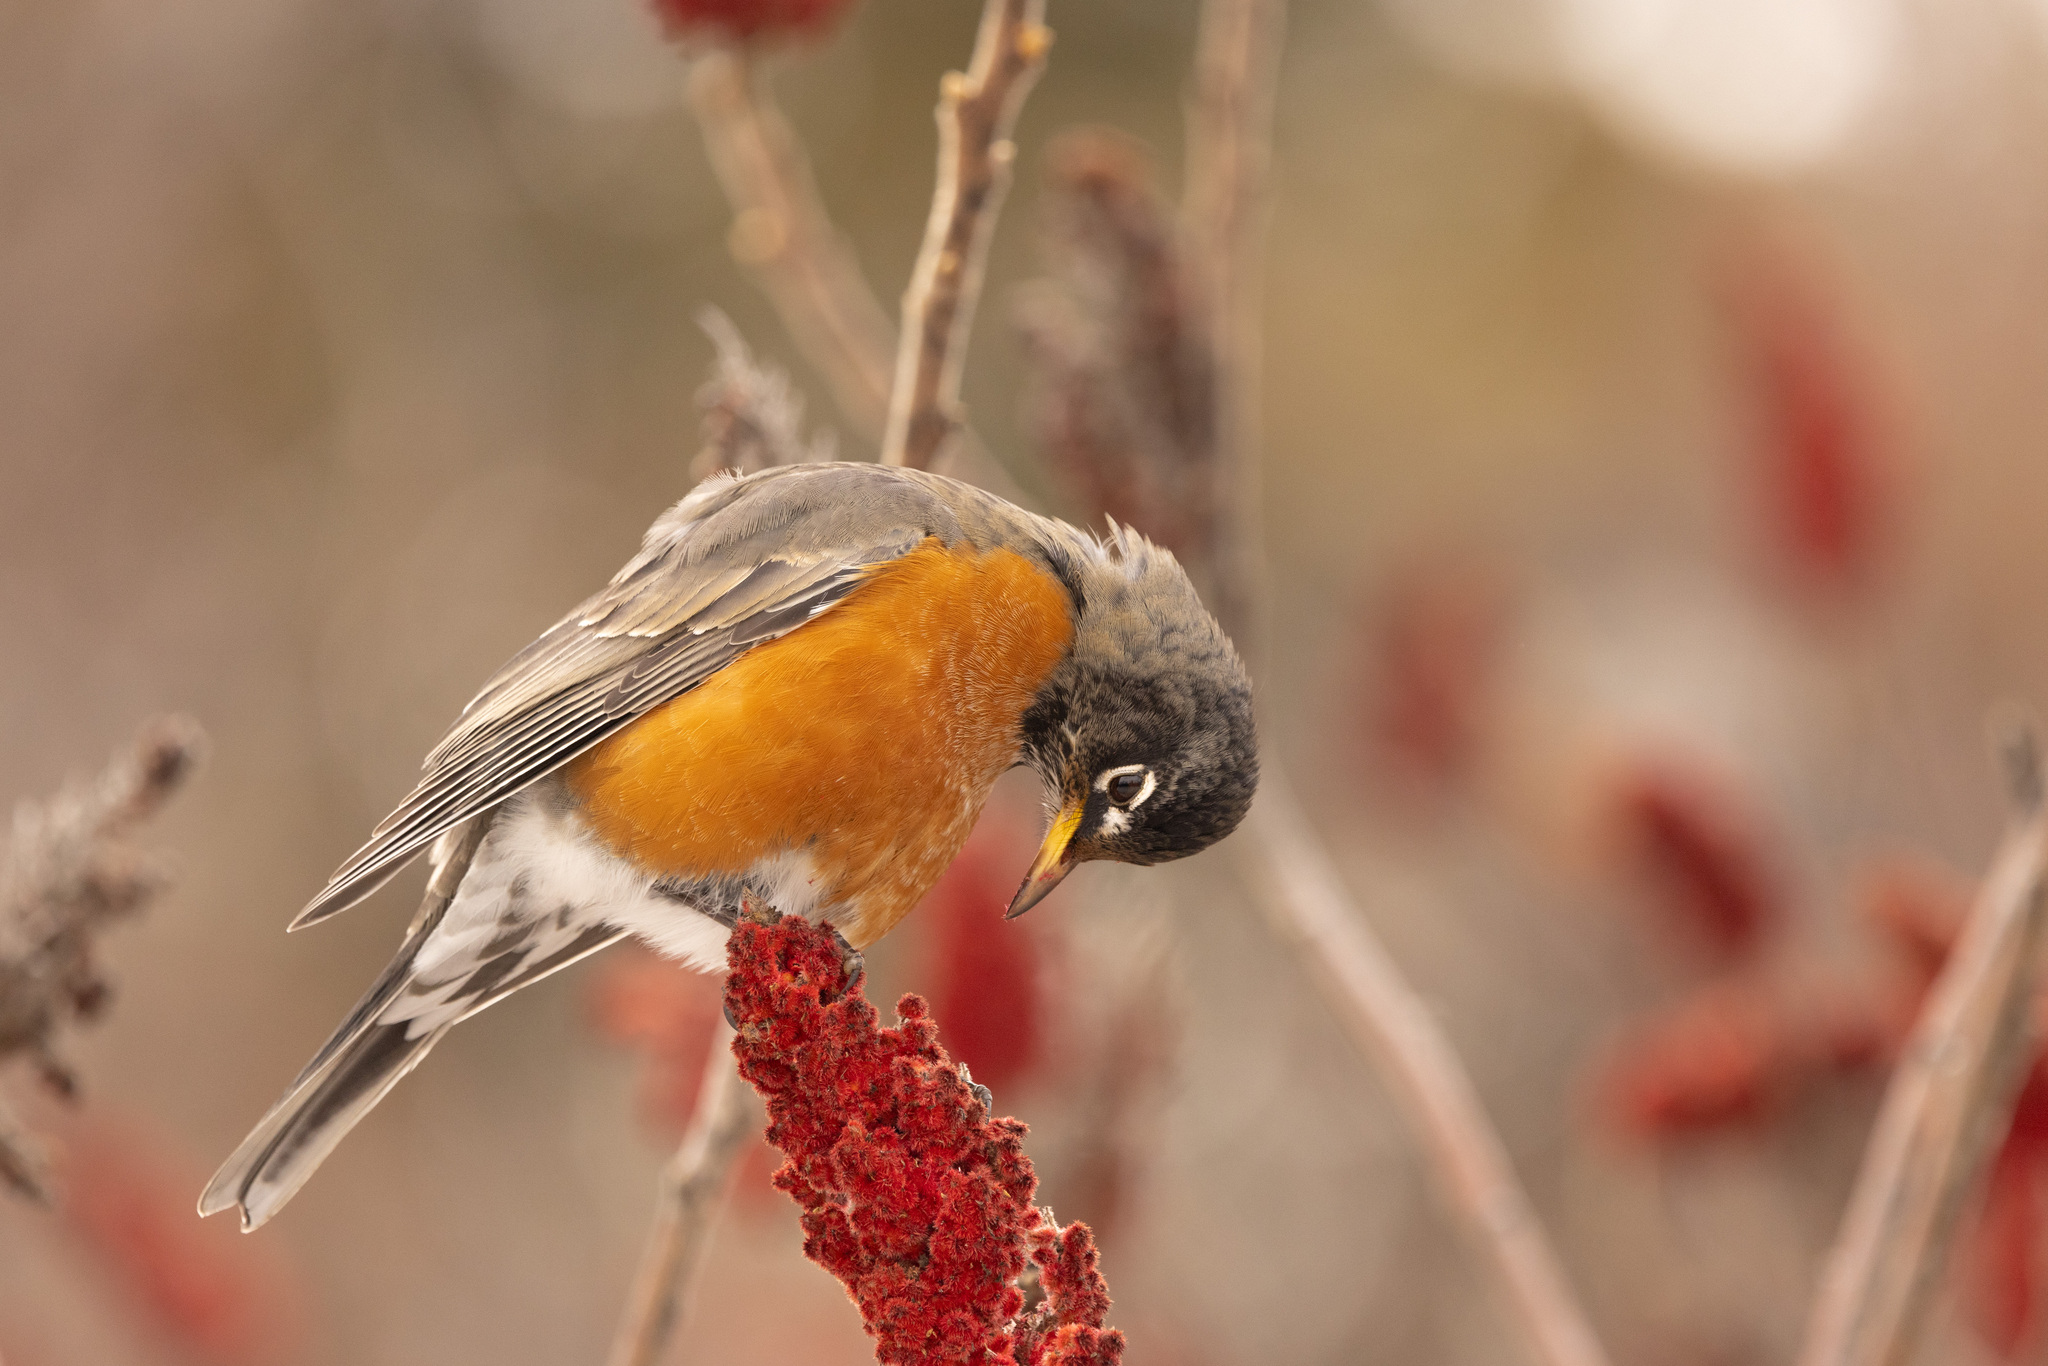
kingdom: Animalia
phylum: Chordata
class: Aves
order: Passeriformes
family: Turdidae
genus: Turdus
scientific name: Turdus migratorius
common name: American robin
